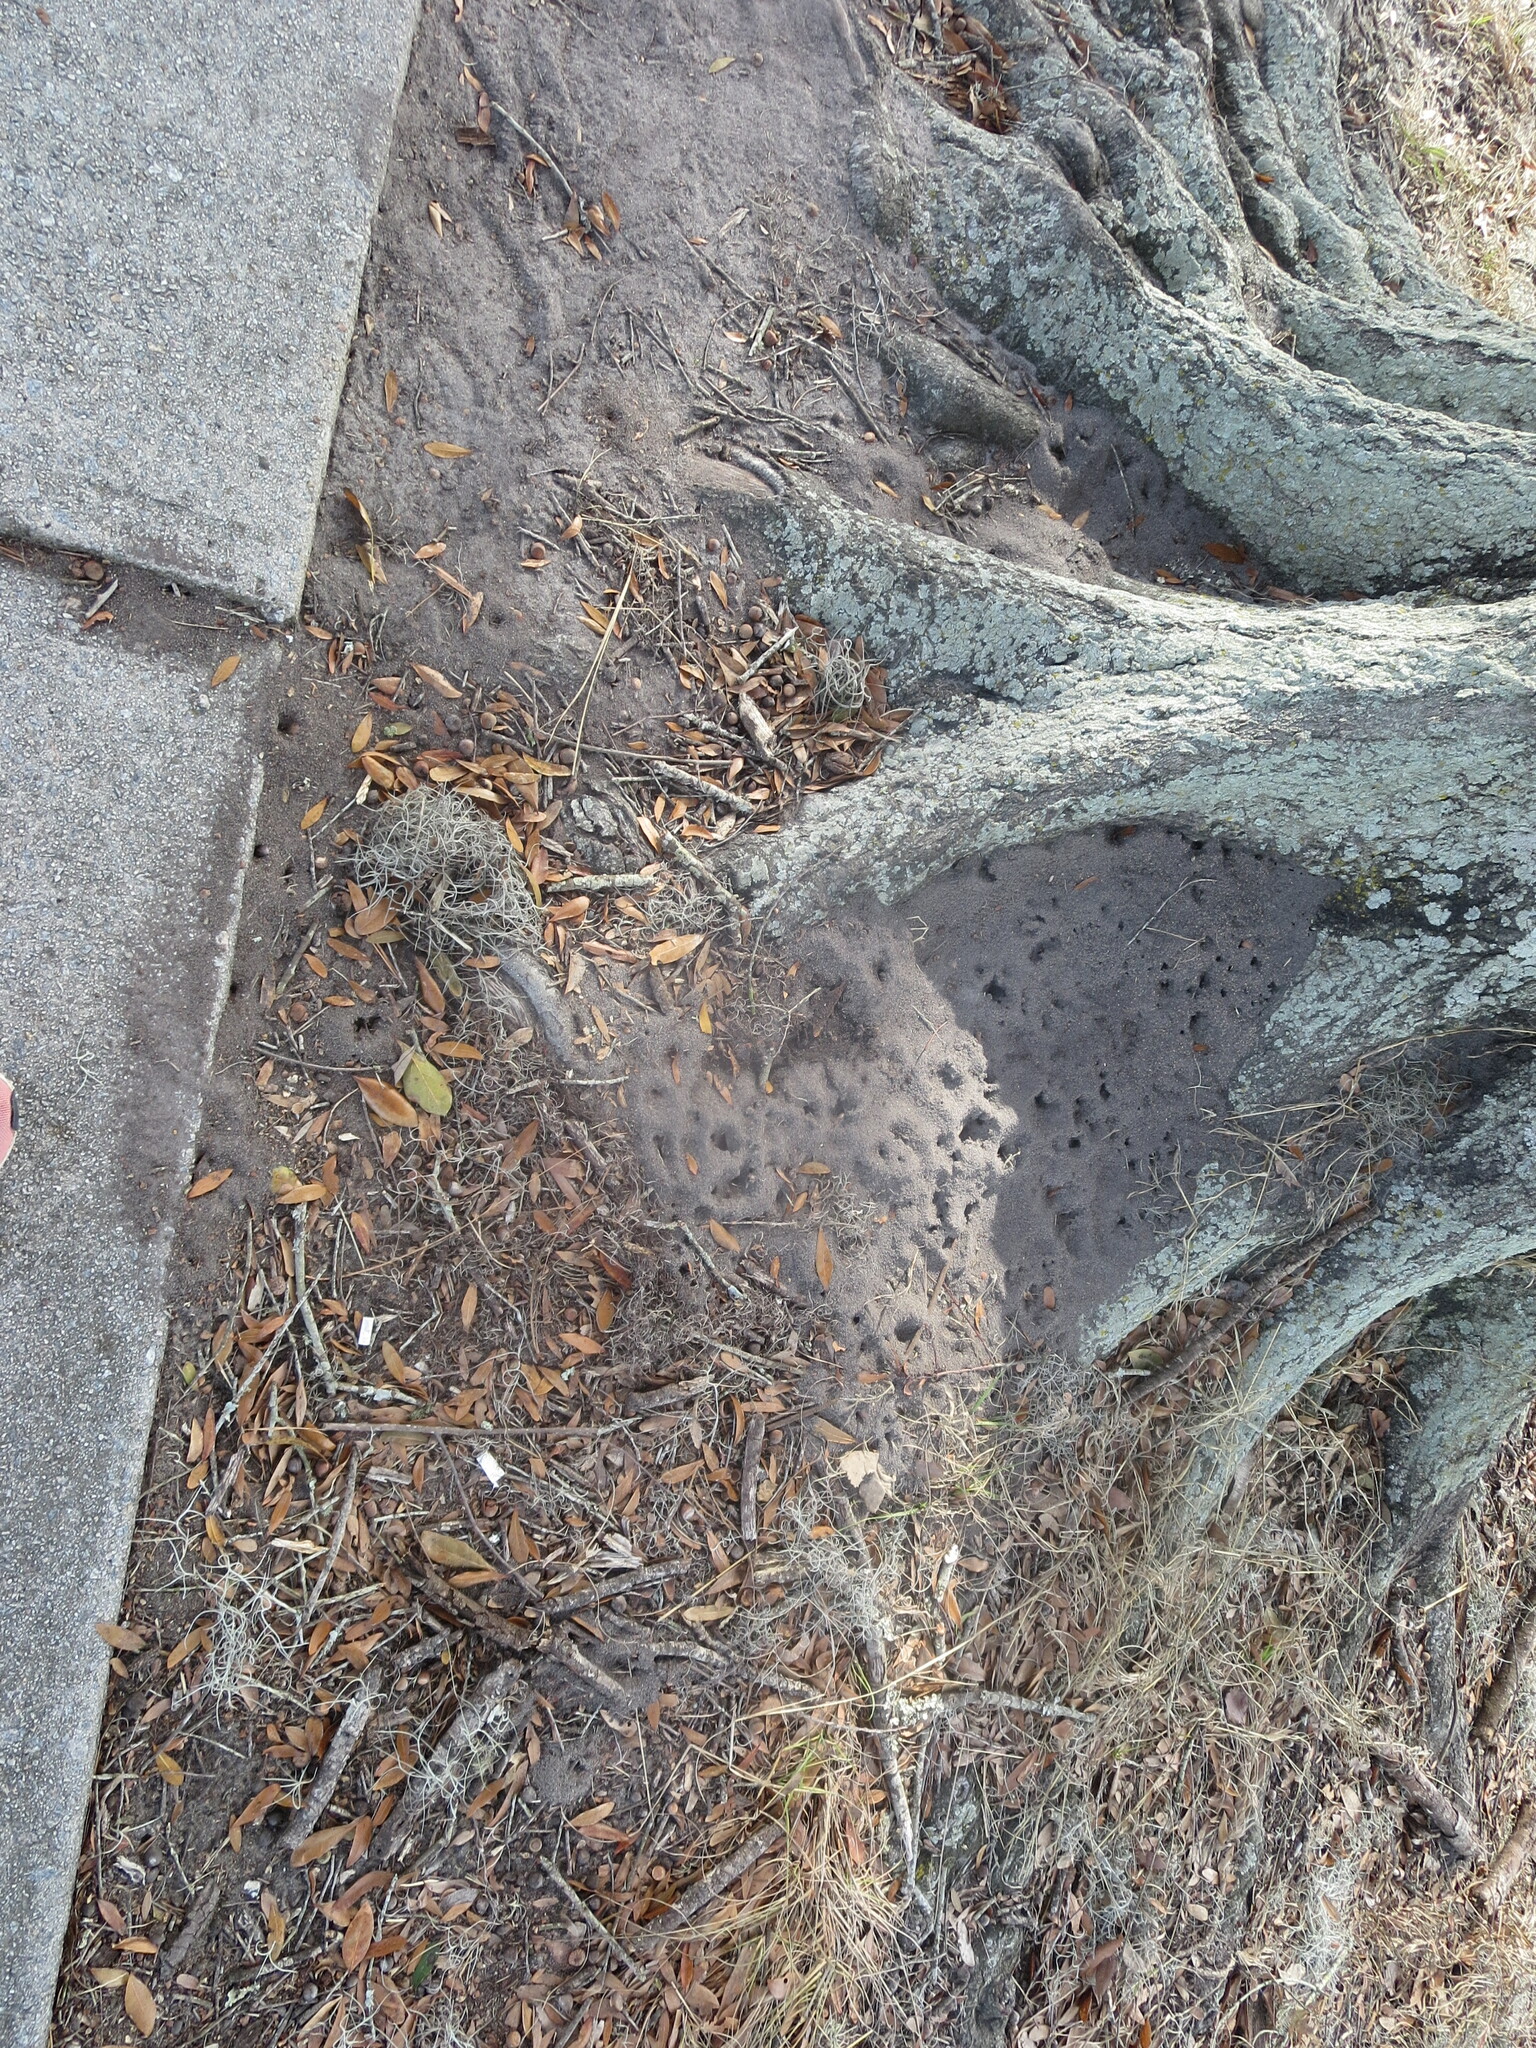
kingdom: Animalia
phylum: Arthropoda
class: Insecta
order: Hymenoptera
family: Formicidae
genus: Solenopsis
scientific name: Solenopsis invicta
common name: Red imported fire ant
